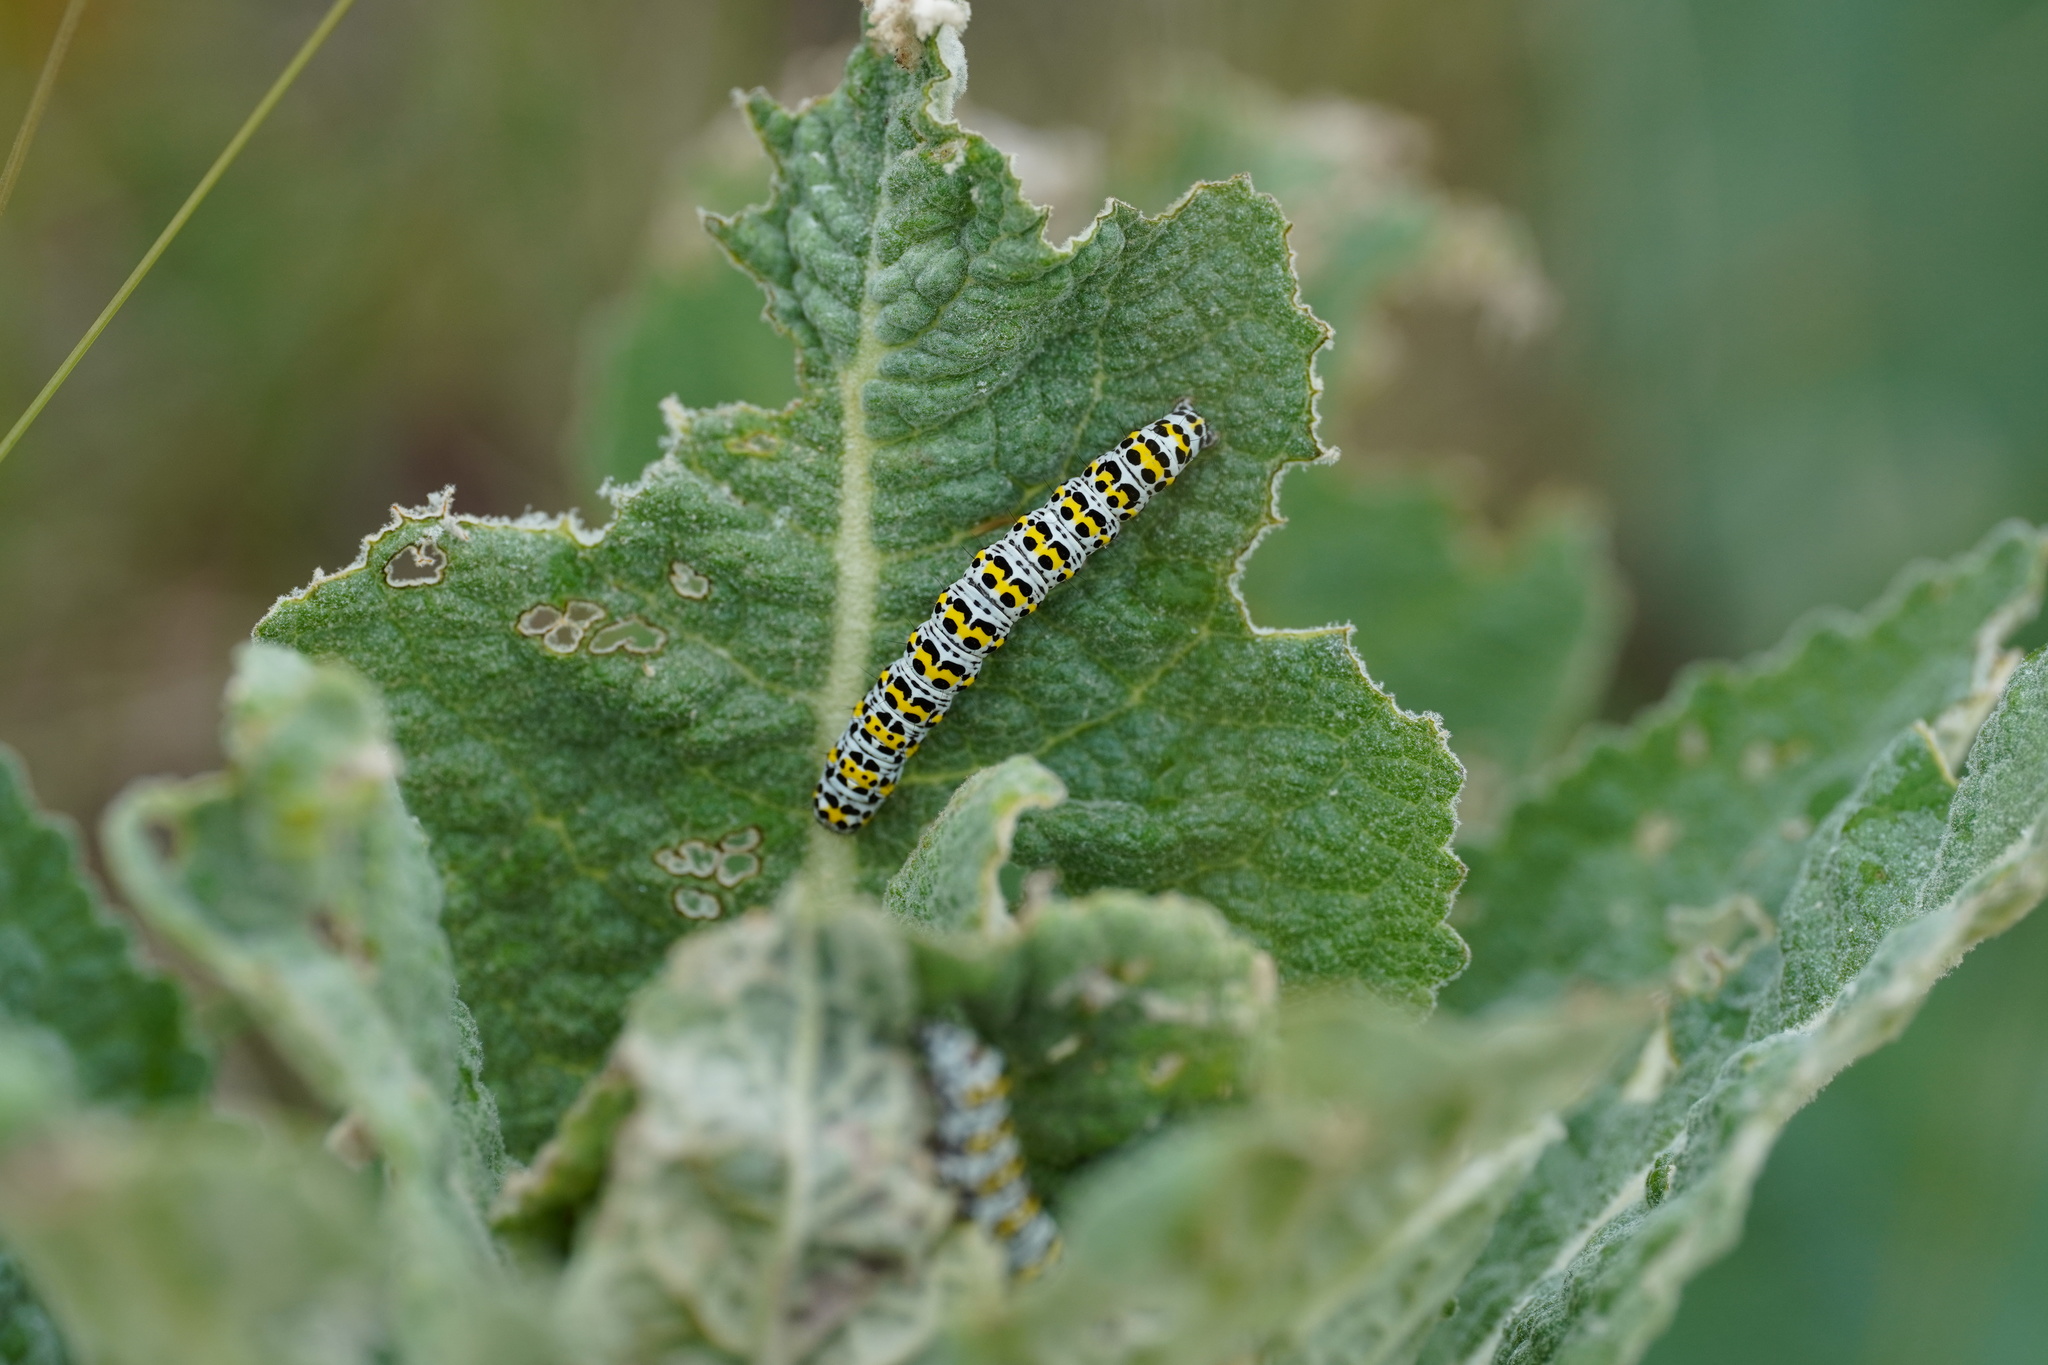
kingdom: Animalia
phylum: Arthropoda
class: Insecta
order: Lepidoptera
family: Noctuidae
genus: Cucullia
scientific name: Cucullia verbasci
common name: Mullein
